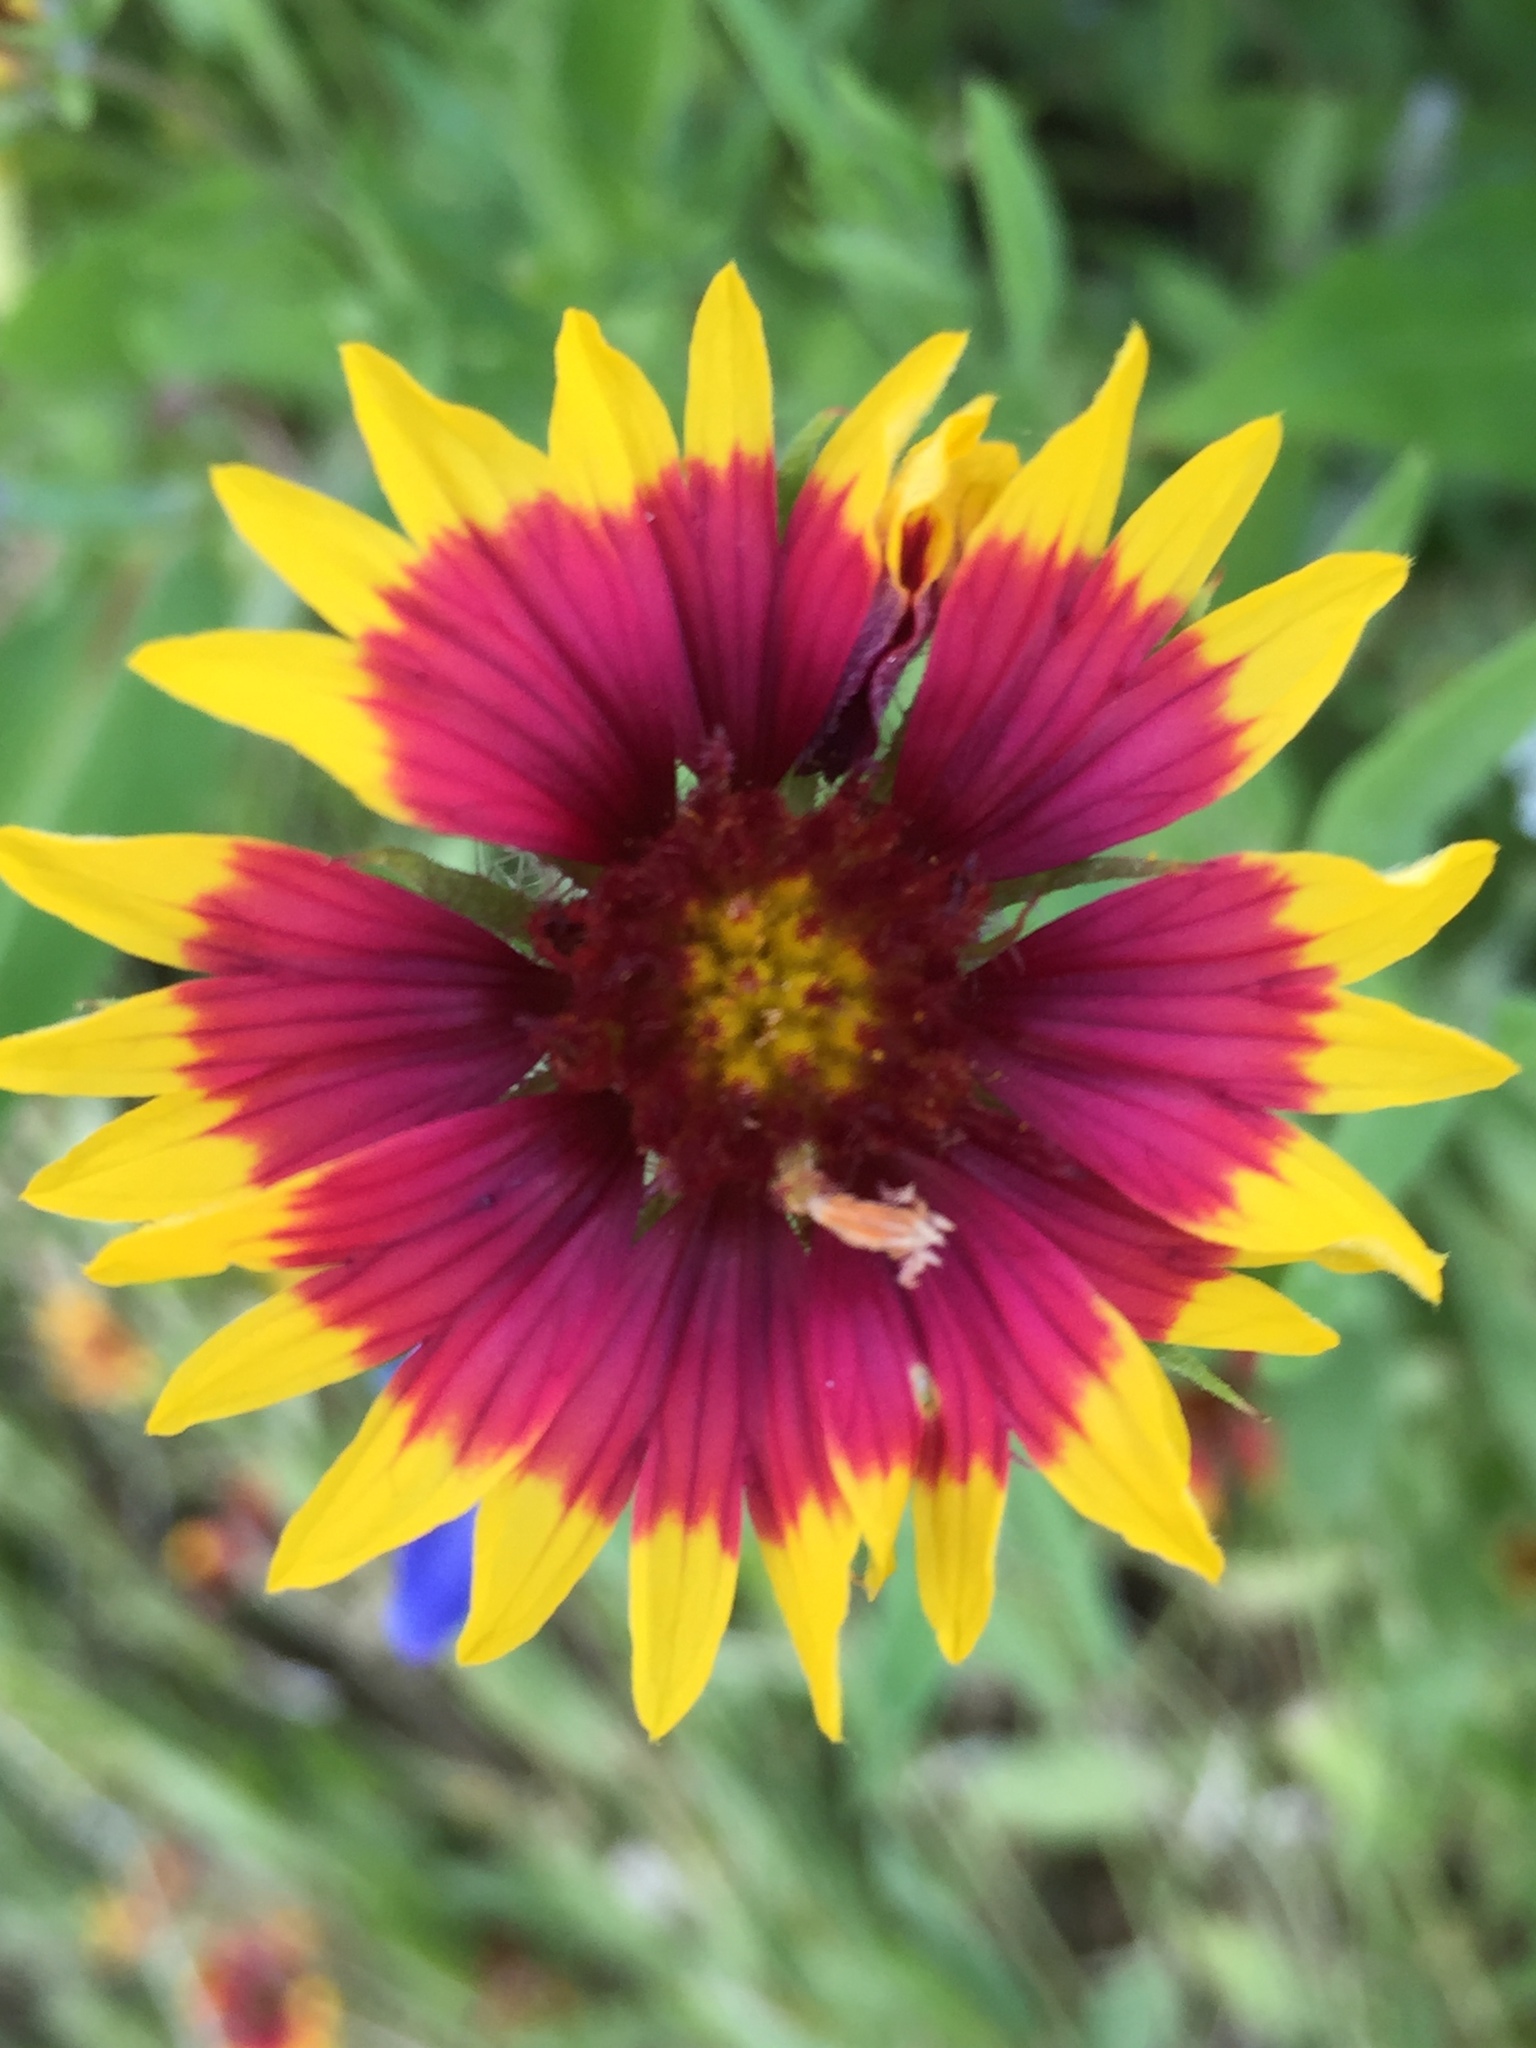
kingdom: Plantae
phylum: Tracheophyta
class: Magnoliopsida
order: Asterales
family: Asteraceae
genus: Gaillardia
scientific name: Gaillardia pulchella
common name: Firewheel
